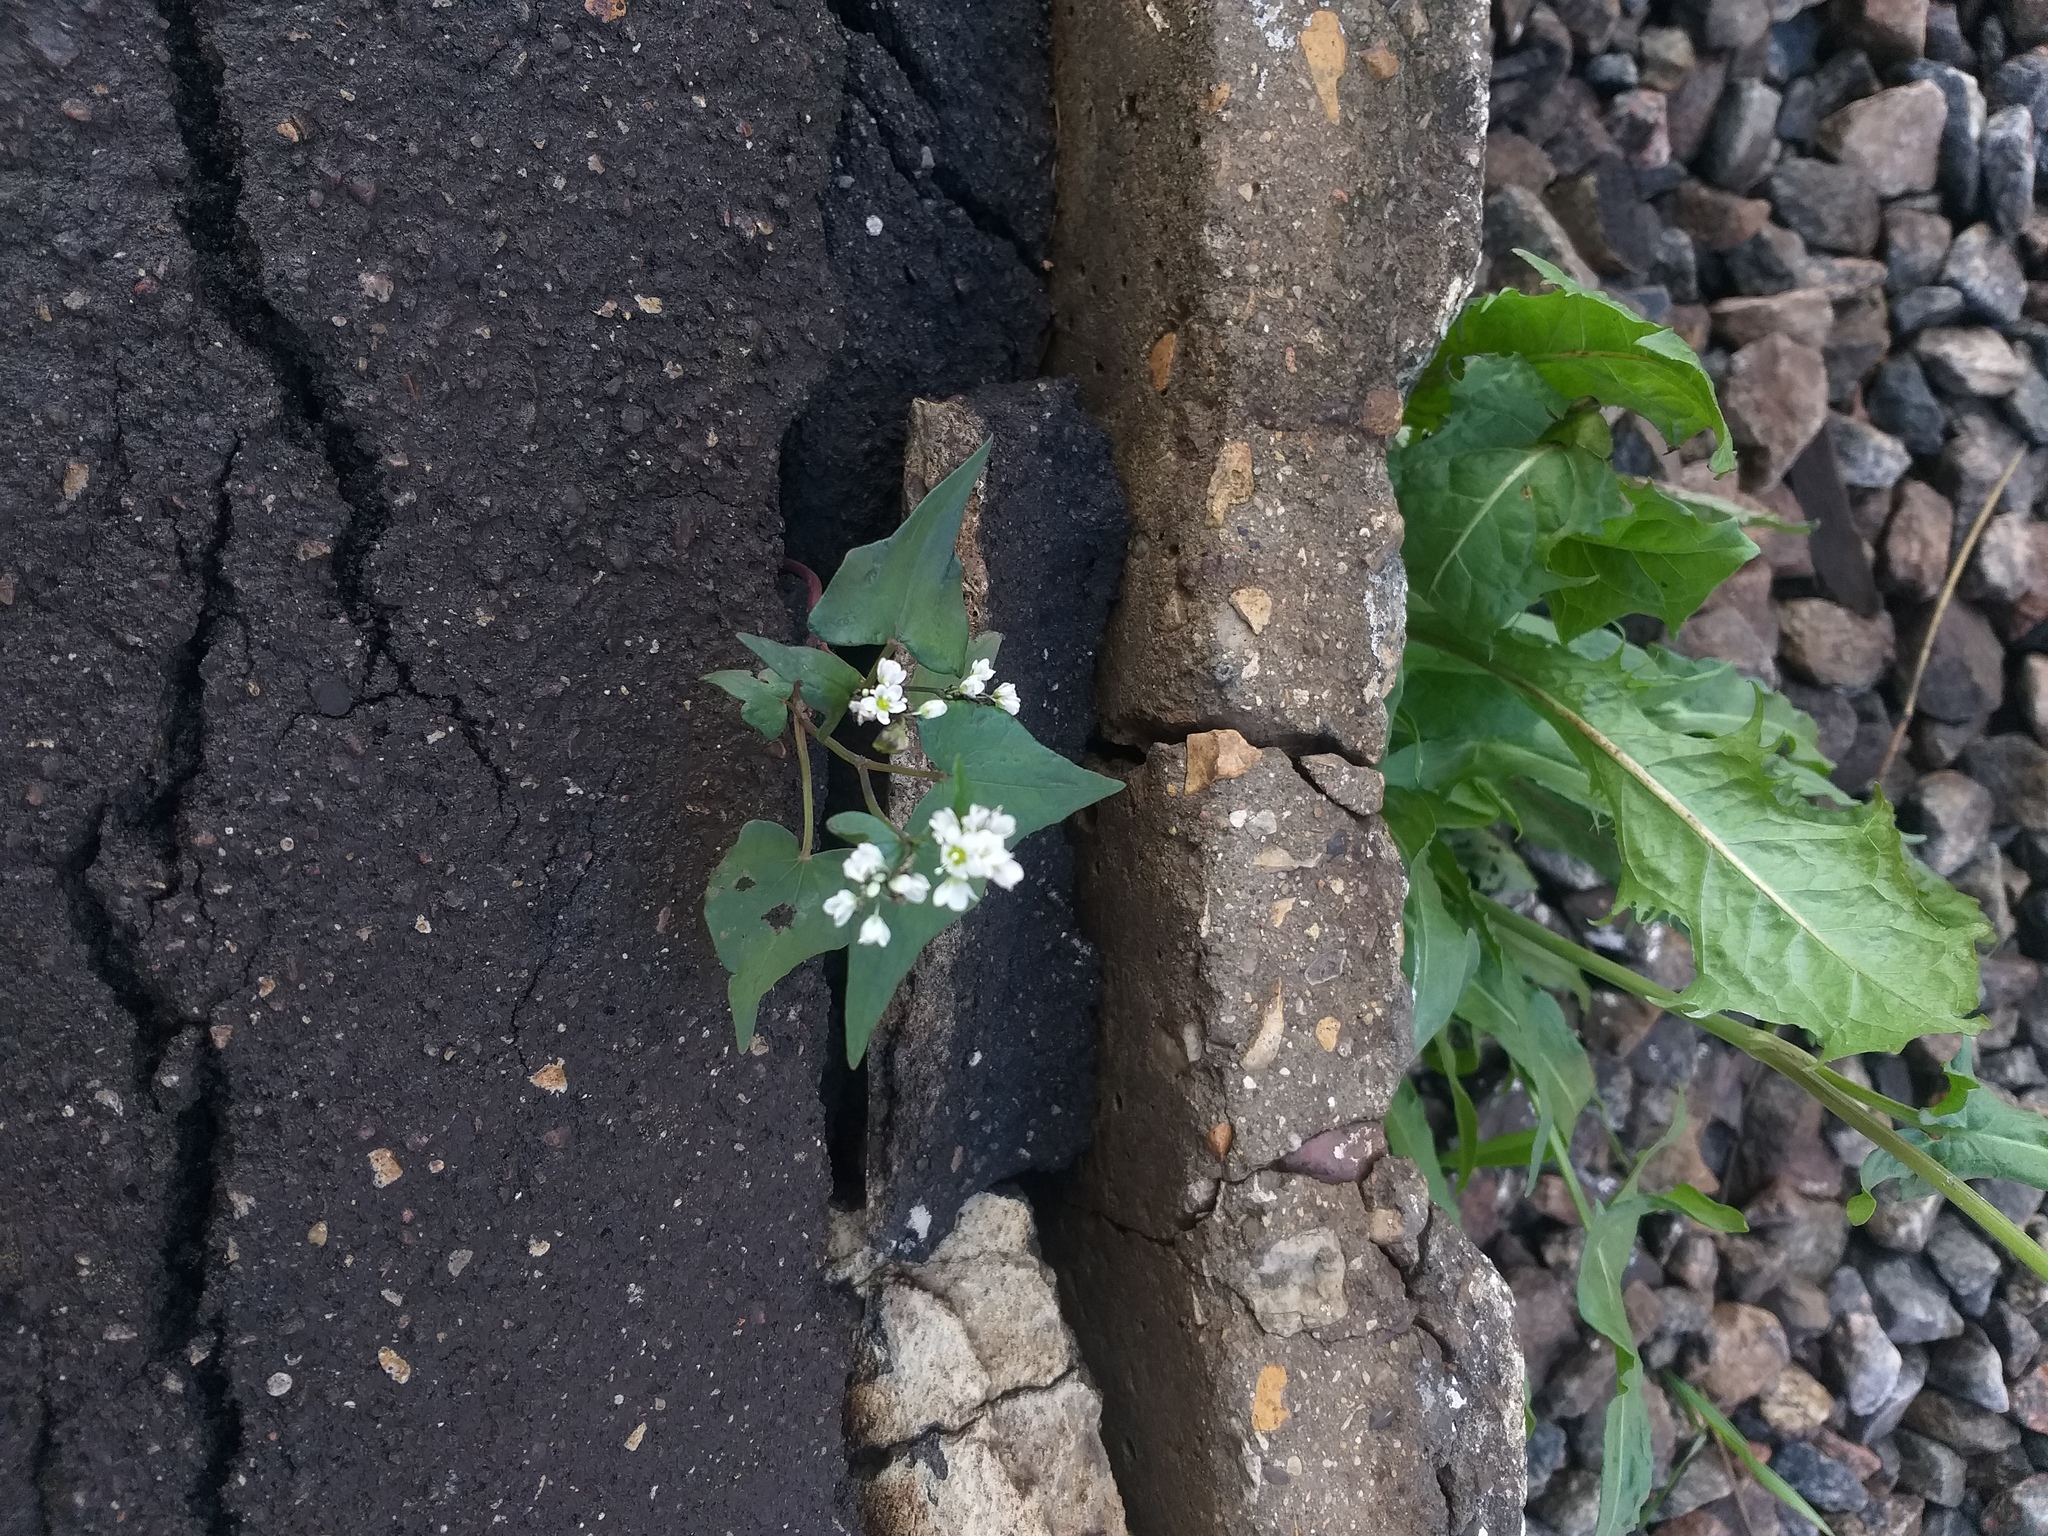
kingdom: Plantae
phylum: Tracheophyta
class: Magnoliopsida
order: Caryophyllales
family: Polygonaceae
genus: Fagopyrum
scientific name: Fagopyrum esculentum
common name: Buckwheat
